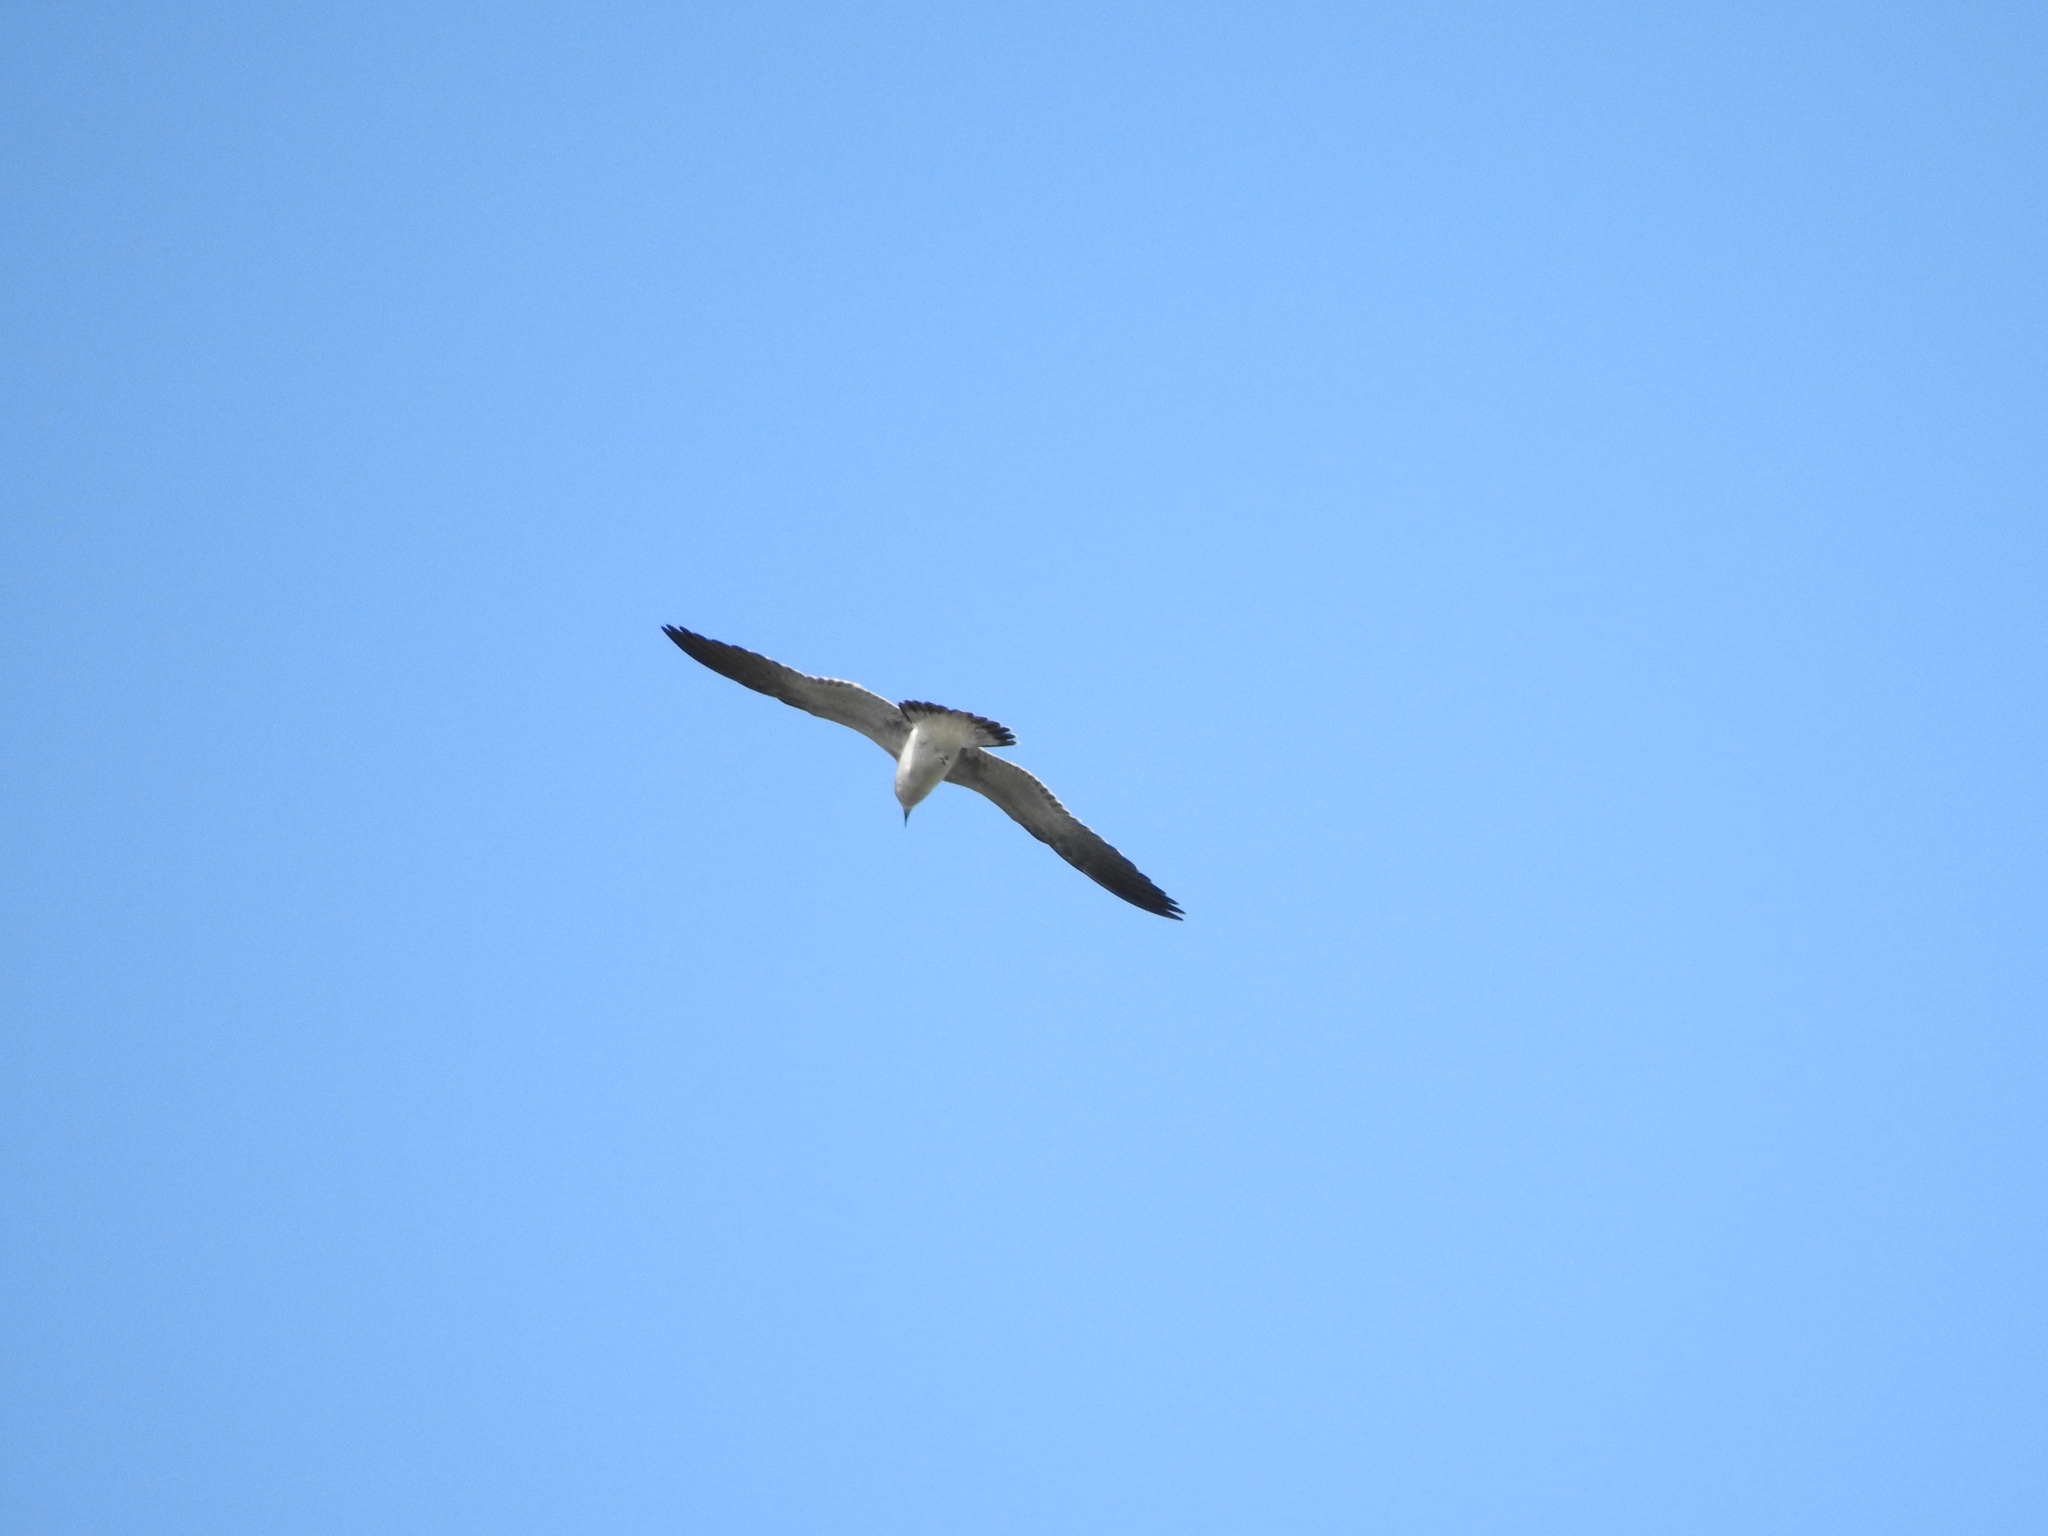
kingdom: Animalia
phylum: Chordata
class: Aves
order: Charadriiformes
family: Laridae
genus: Leucophaeus
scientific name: Leucophaeus atricilla
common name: Laughing gull
